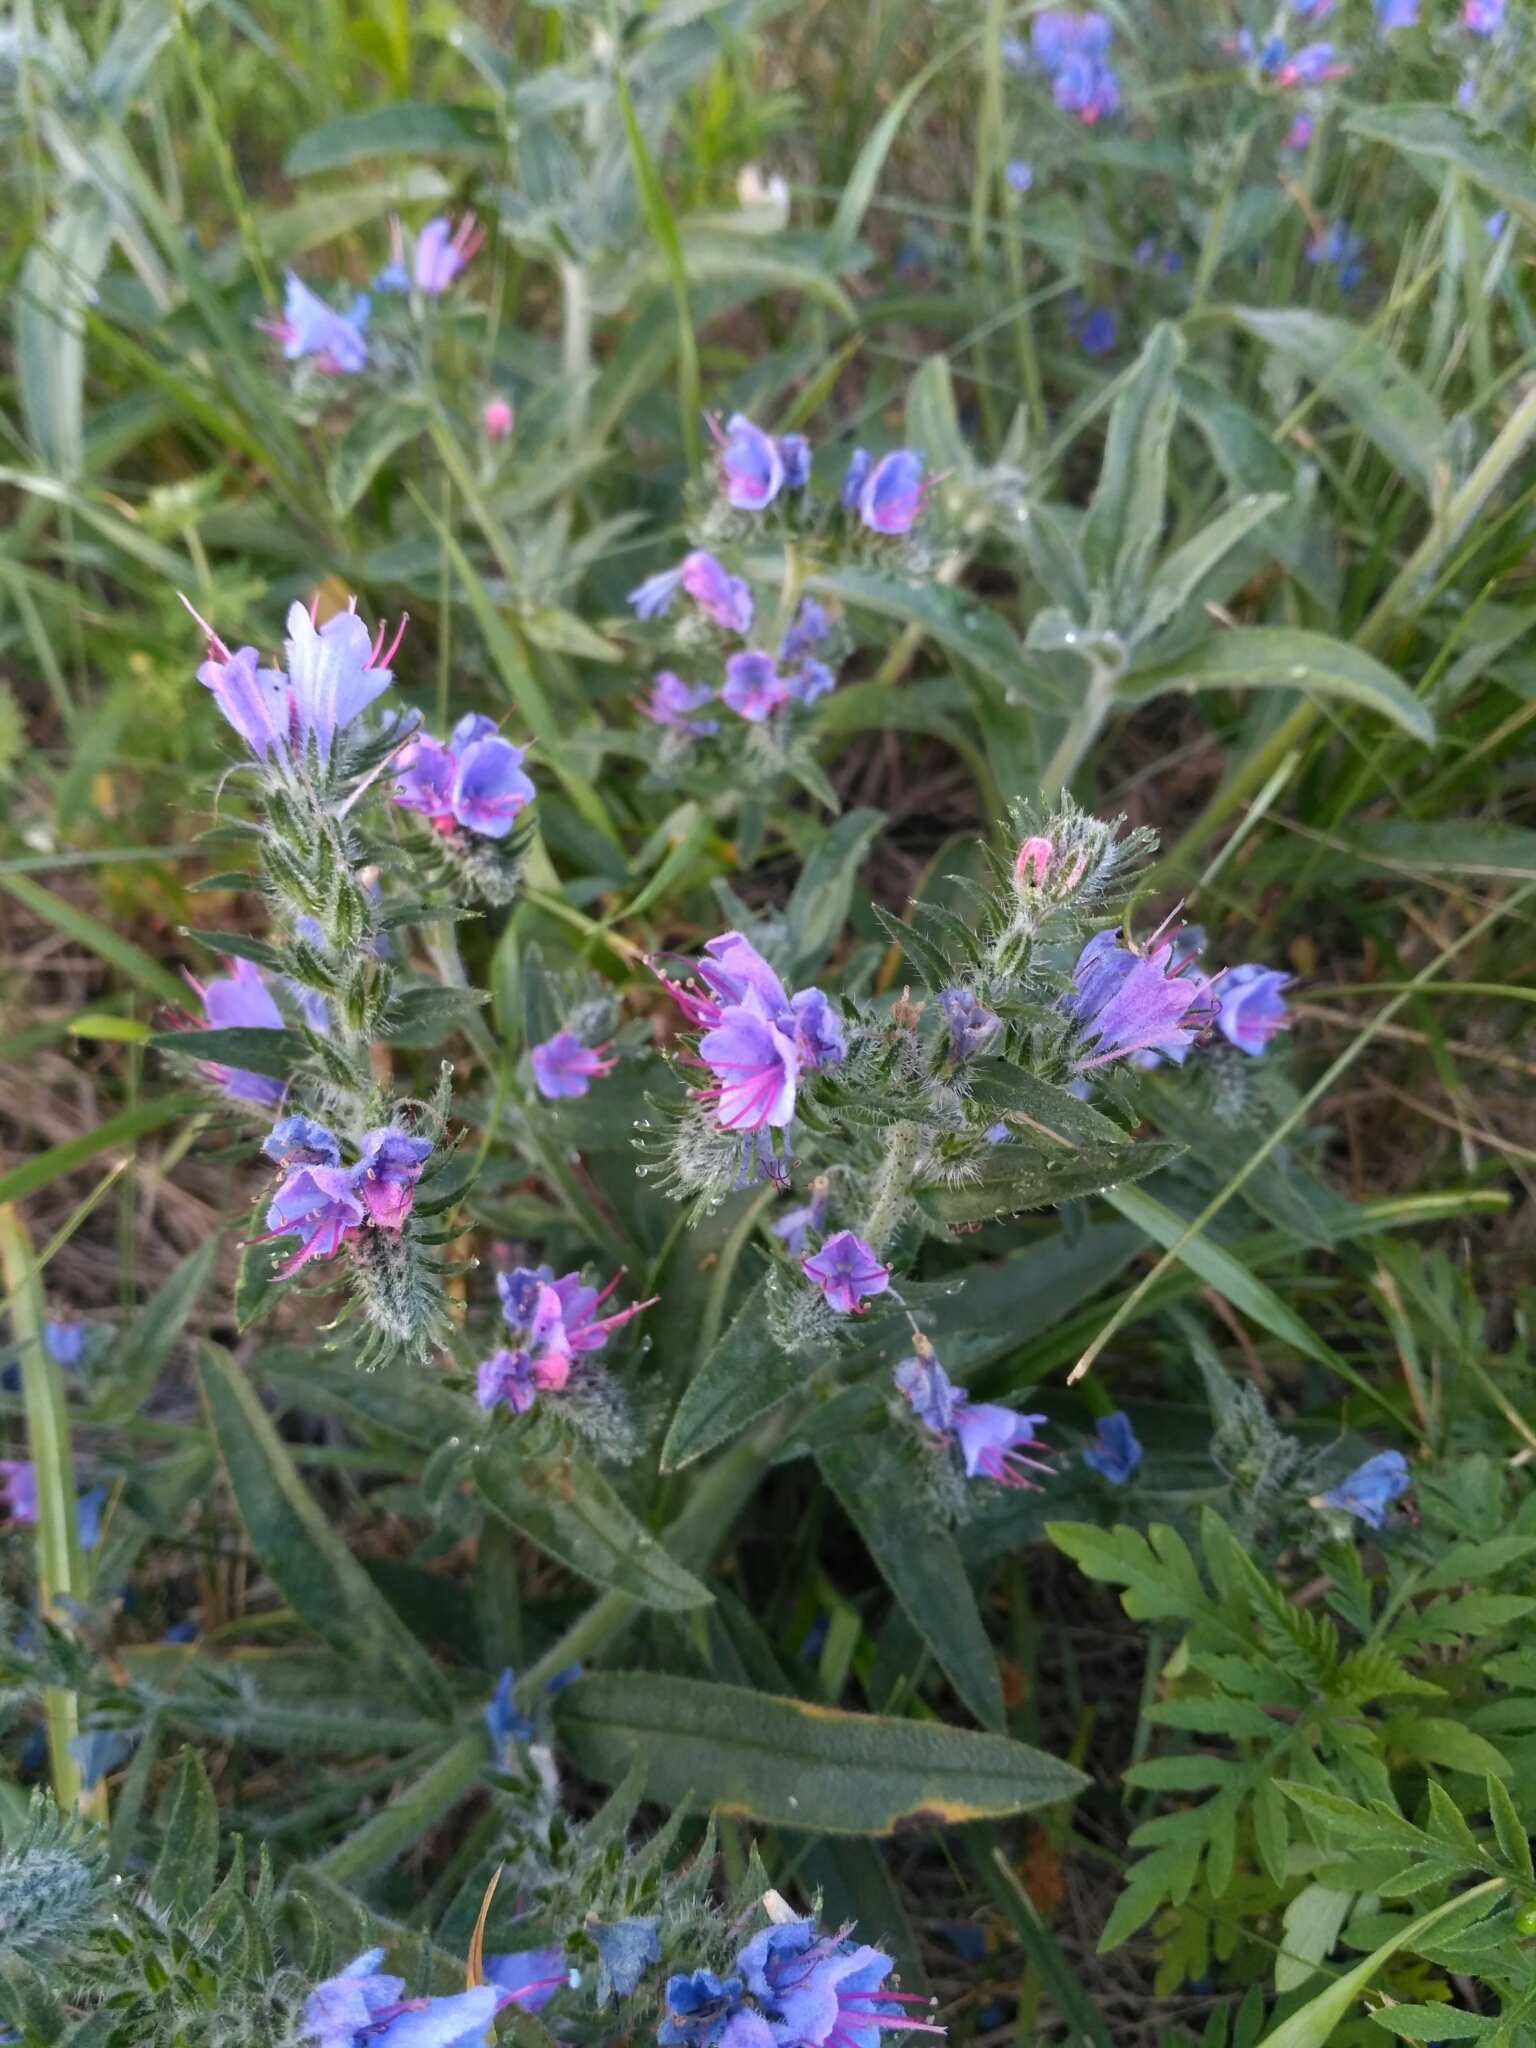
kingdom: Plantae
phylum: Tracheophyta
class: Magnoliopsida
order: Boraginales
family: Boraginaceae
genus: Echium
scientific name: Echium vulgare
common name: Common viper's bugloss
